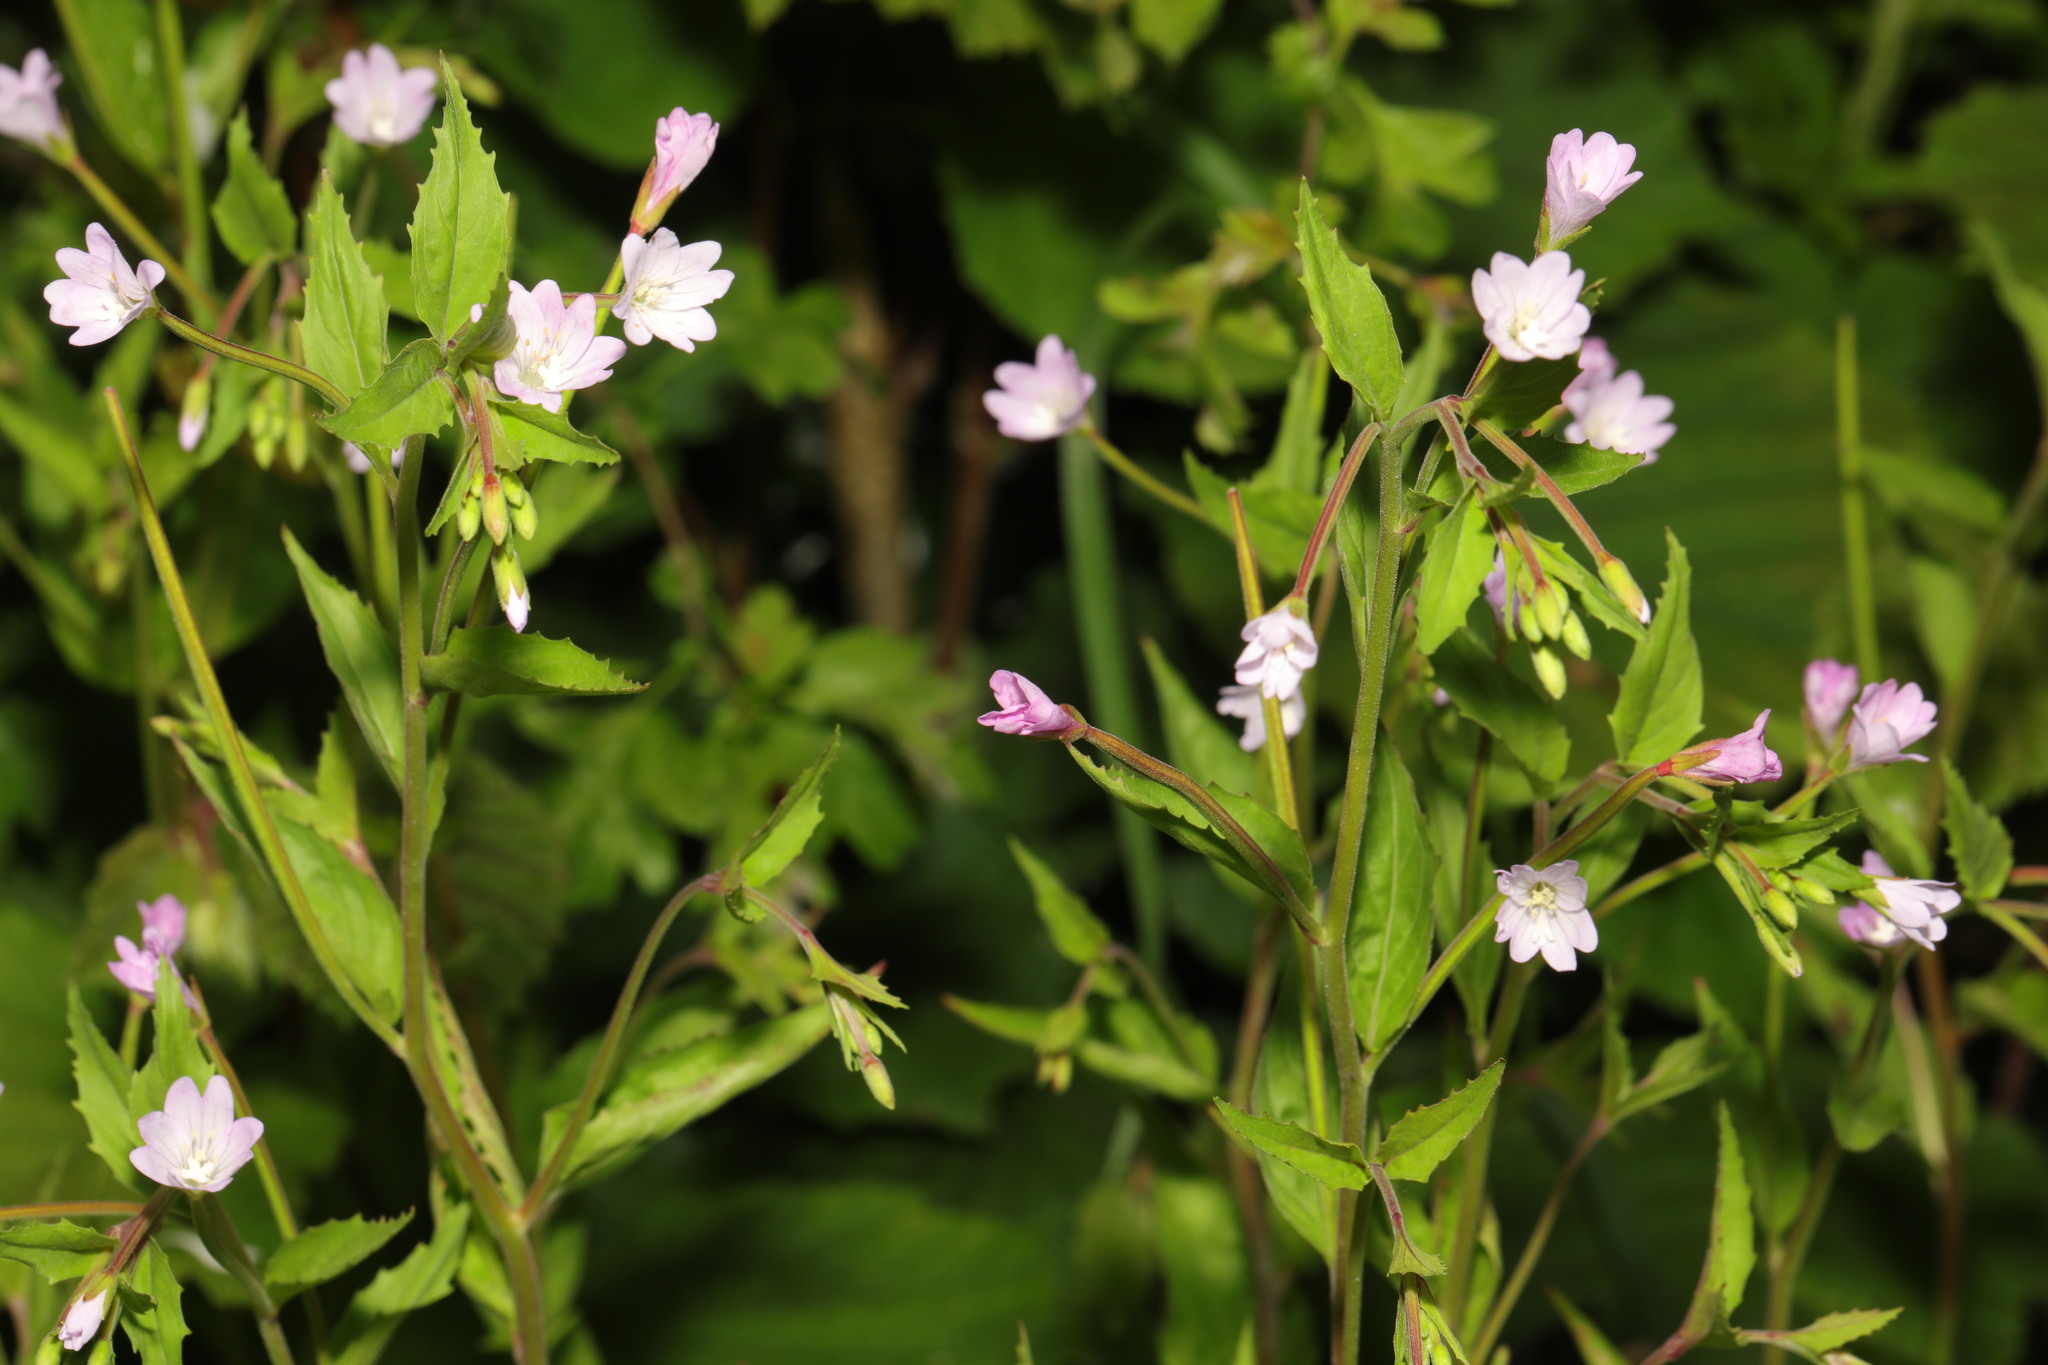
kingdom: Plantae
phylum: Tracheophyta
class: Magnoliopsida
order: Myrtales
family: Onagraceae
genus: Epilobium
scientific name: Epilobium montanum
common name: Broad-leaved willowherb
